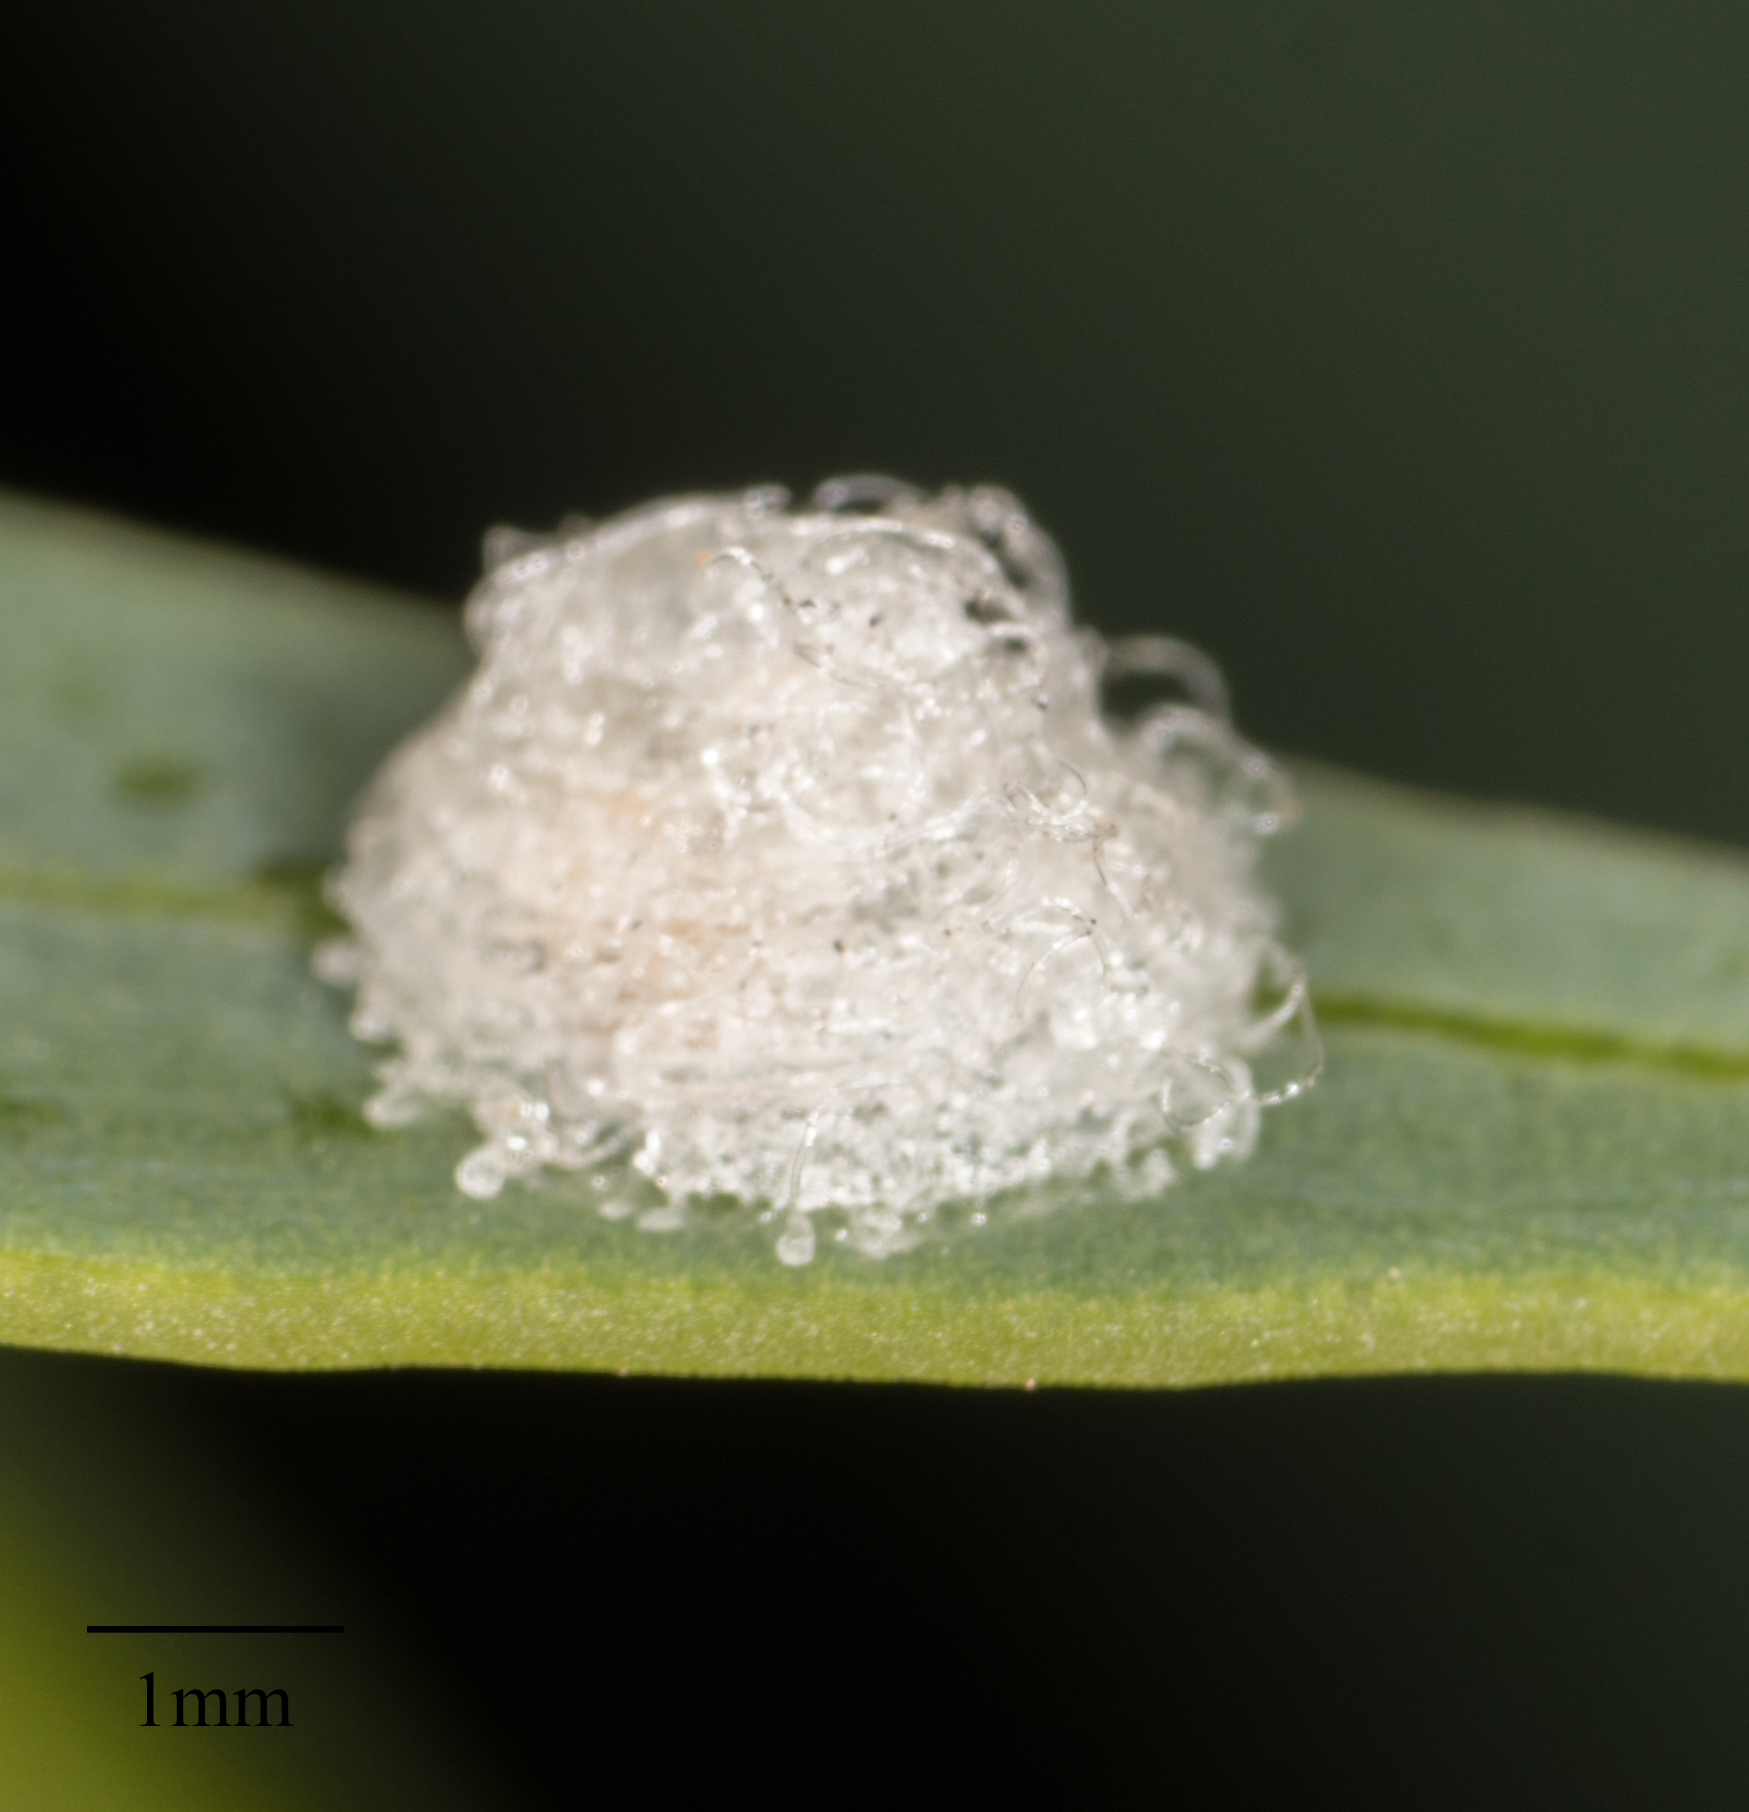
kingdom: Animalia
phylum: Arthropoda
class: Insecta
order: Hemiptera
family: Aphalaridae
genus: Glycaspis
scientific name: Glycaspis brimblecombei
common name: Red gum lerp psyllid
